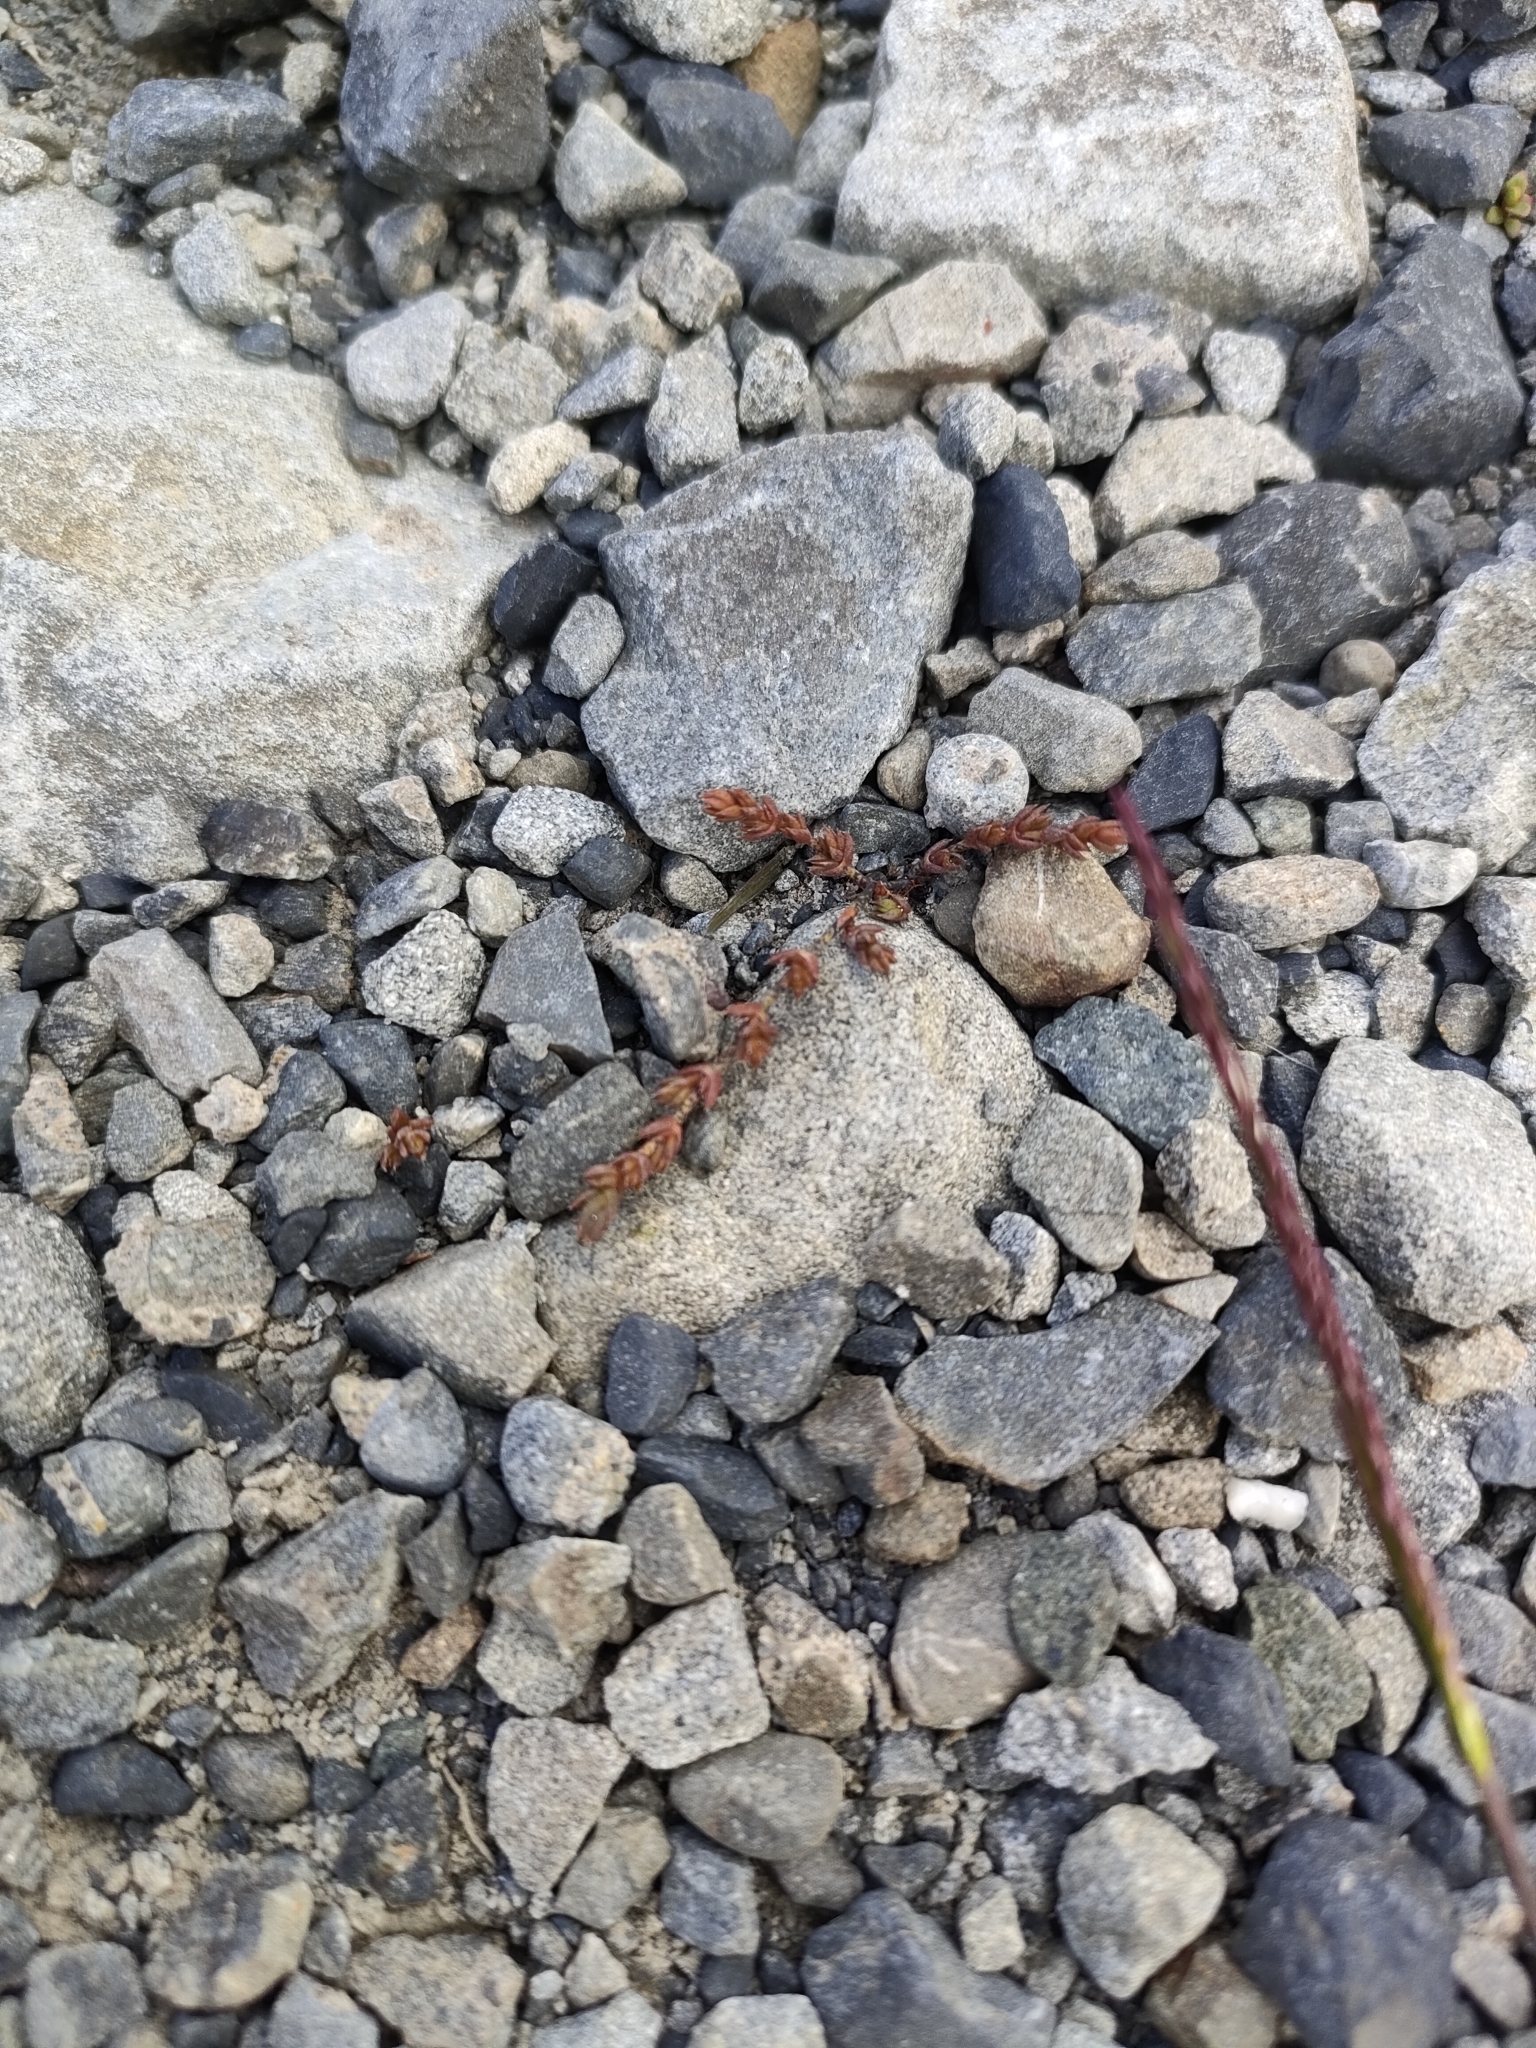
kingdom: Plantae
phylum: Tracheophyta
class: Magnoliopsida
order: Saxifragales
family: Crassulaceae
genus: Crassula
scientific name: Crassula multicaulis
